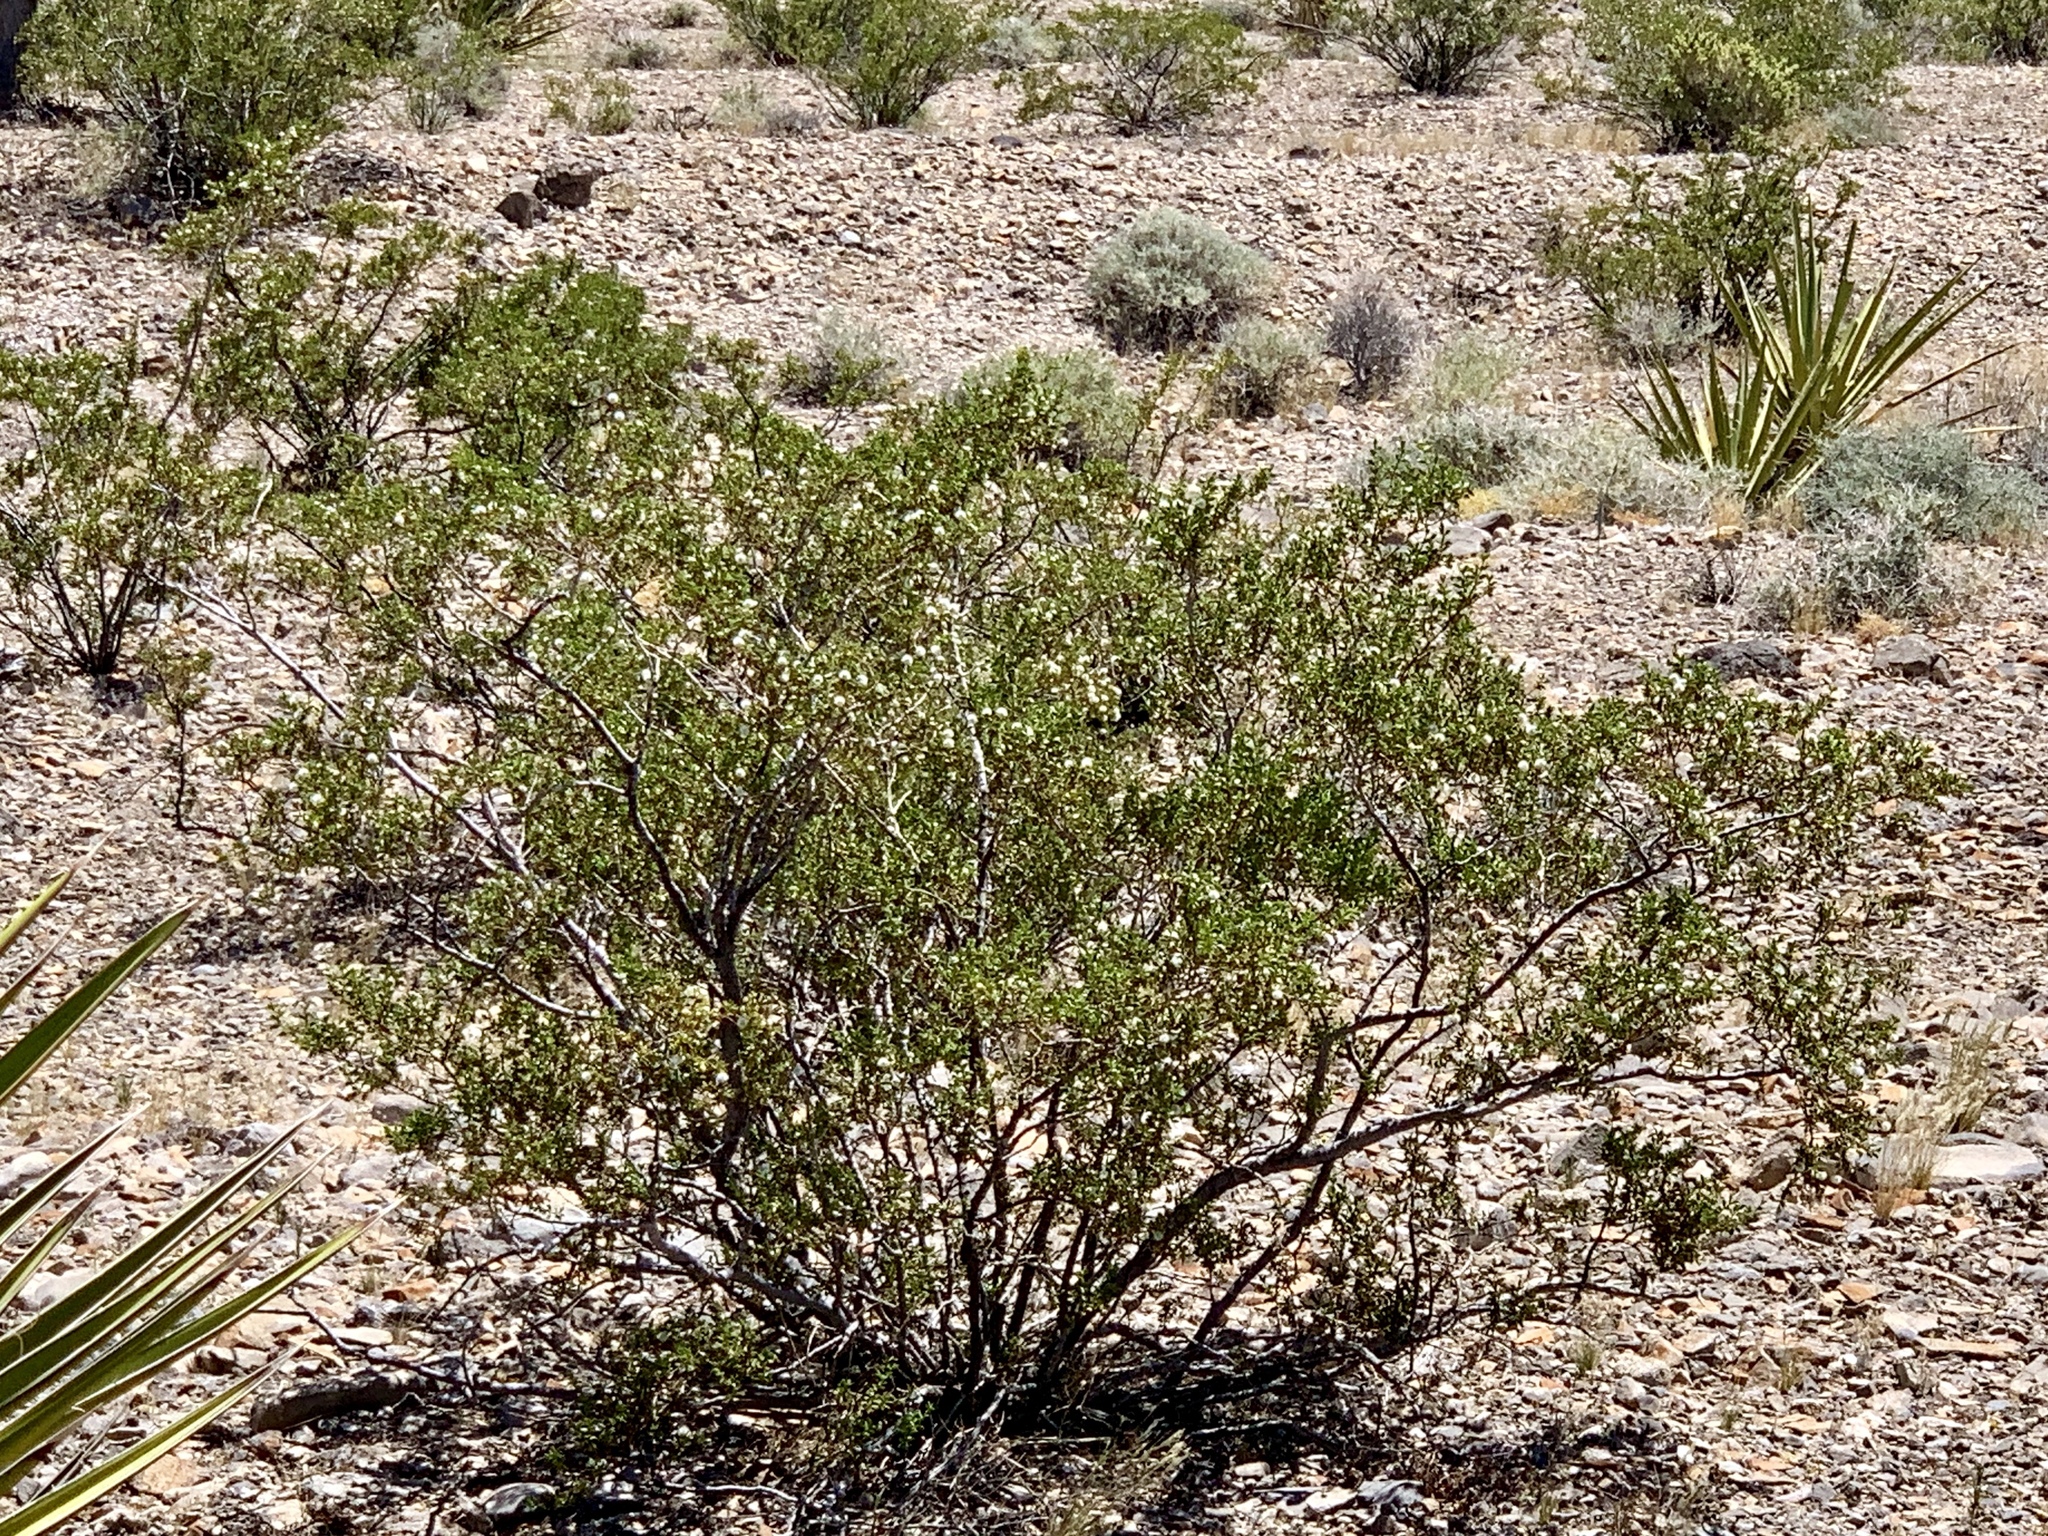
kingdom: Plantae
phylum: Tracheophyta
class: Magnoliopsida
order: Zygophyllales
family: Zygophyllaceae
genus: Larrea
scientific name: Larrea tridentata
